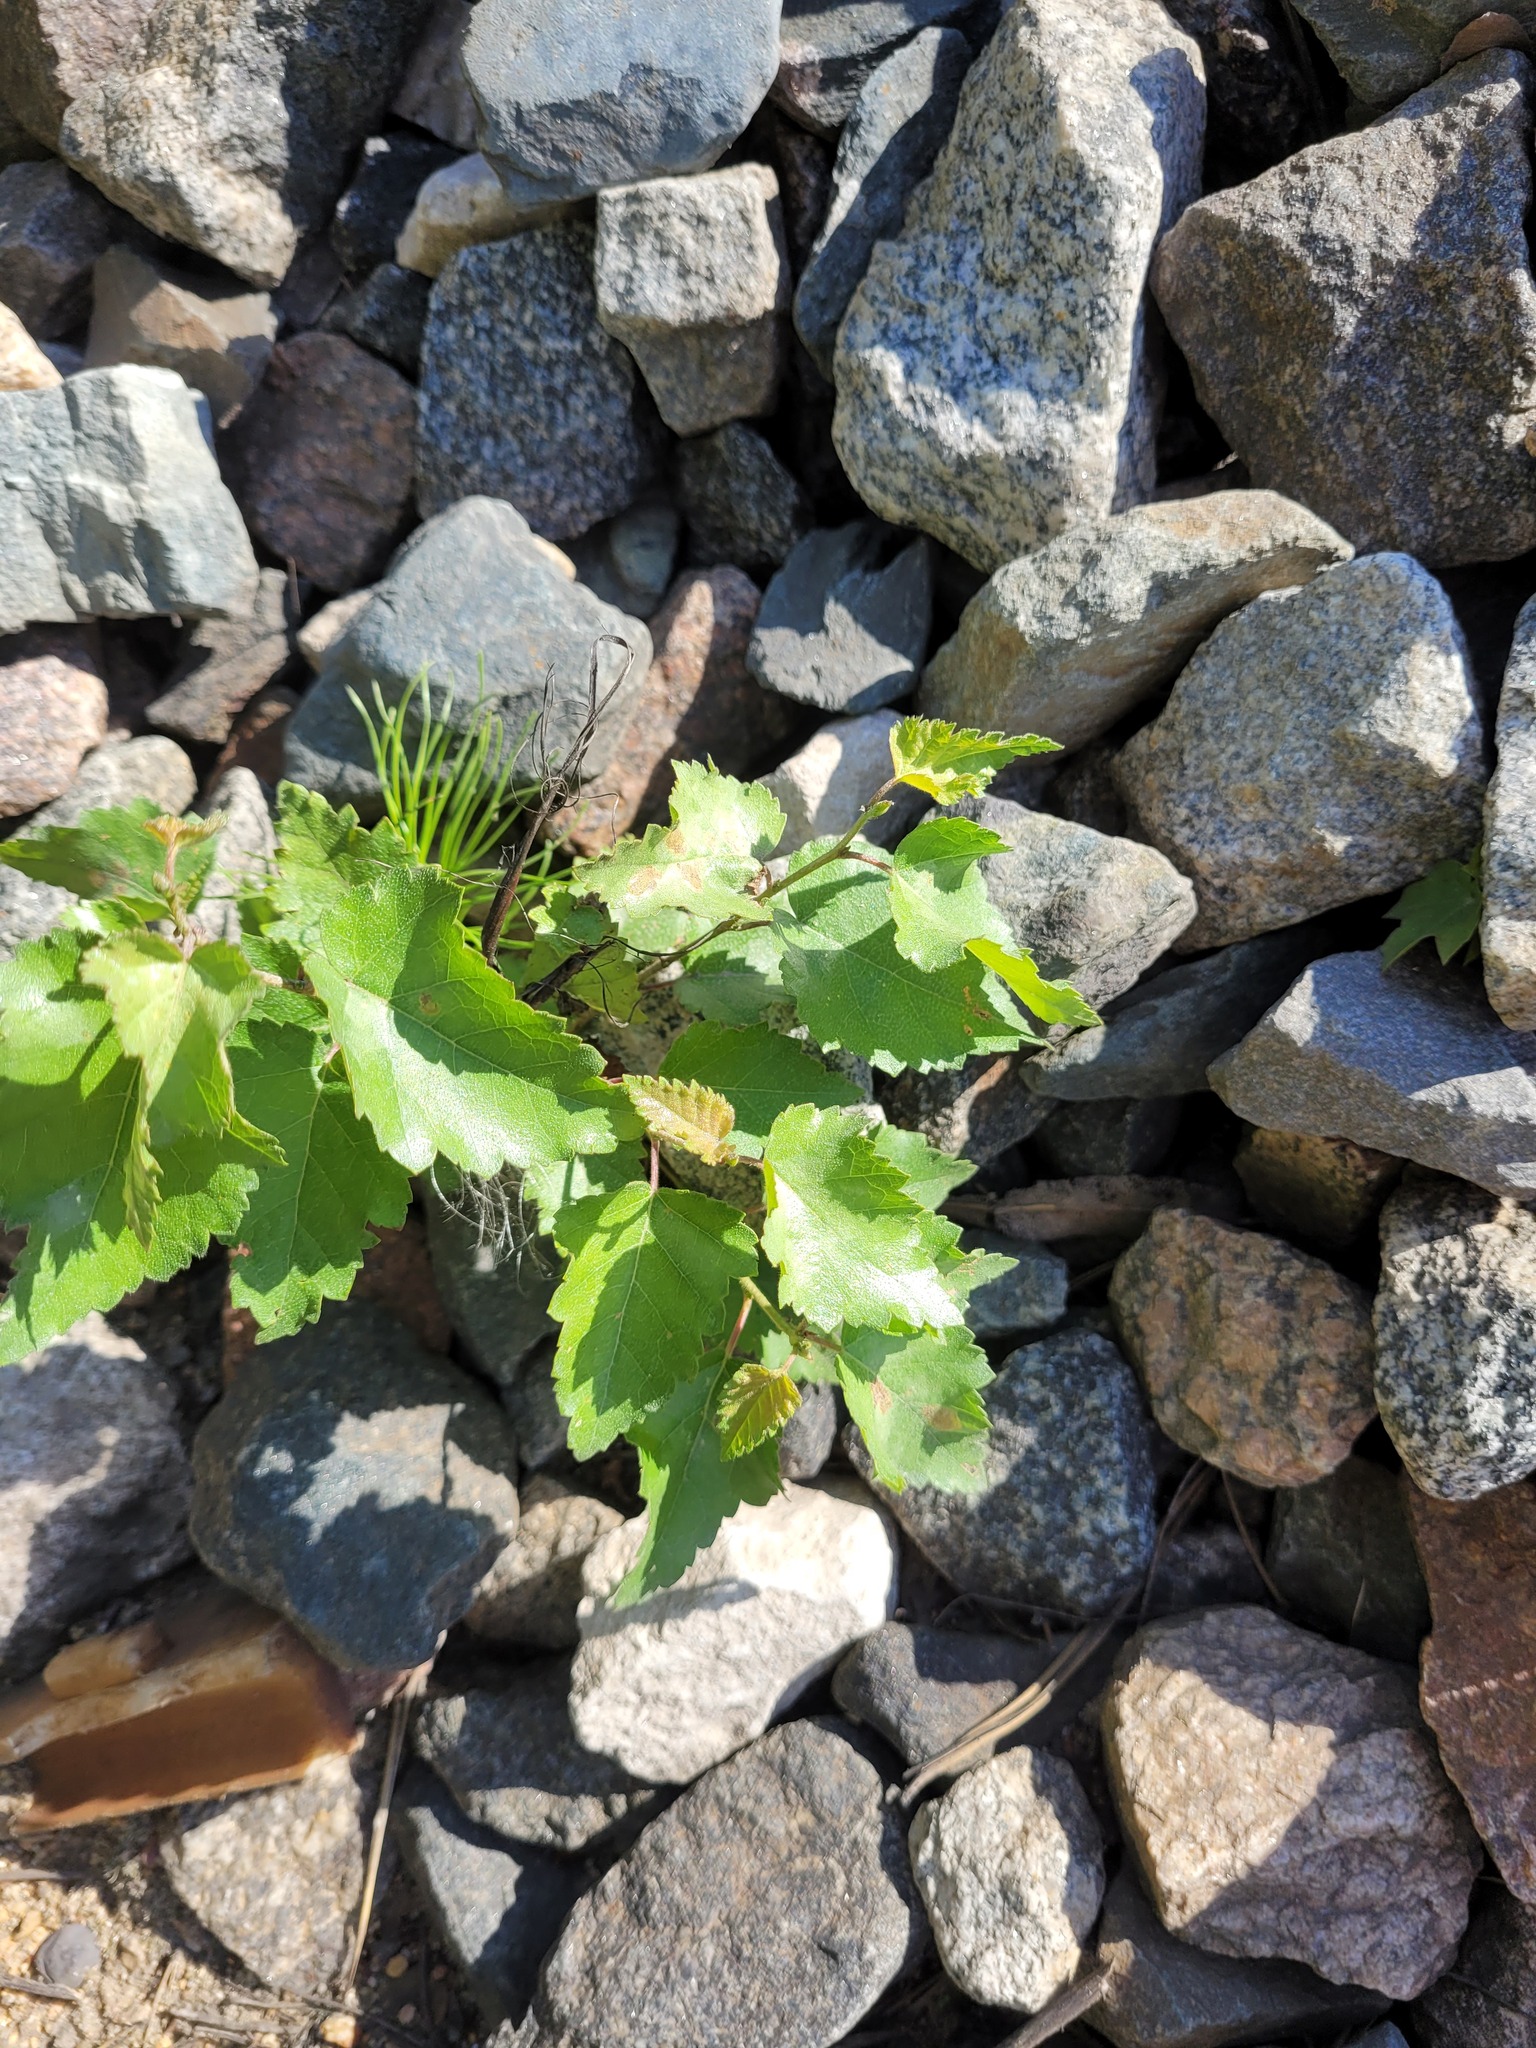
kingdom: Plantae
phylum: Tracheophyta
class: Magnoliopsida
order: Fagales
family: Betulaceae
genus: Betula
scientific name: Betula pubescens
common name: Downy birch
